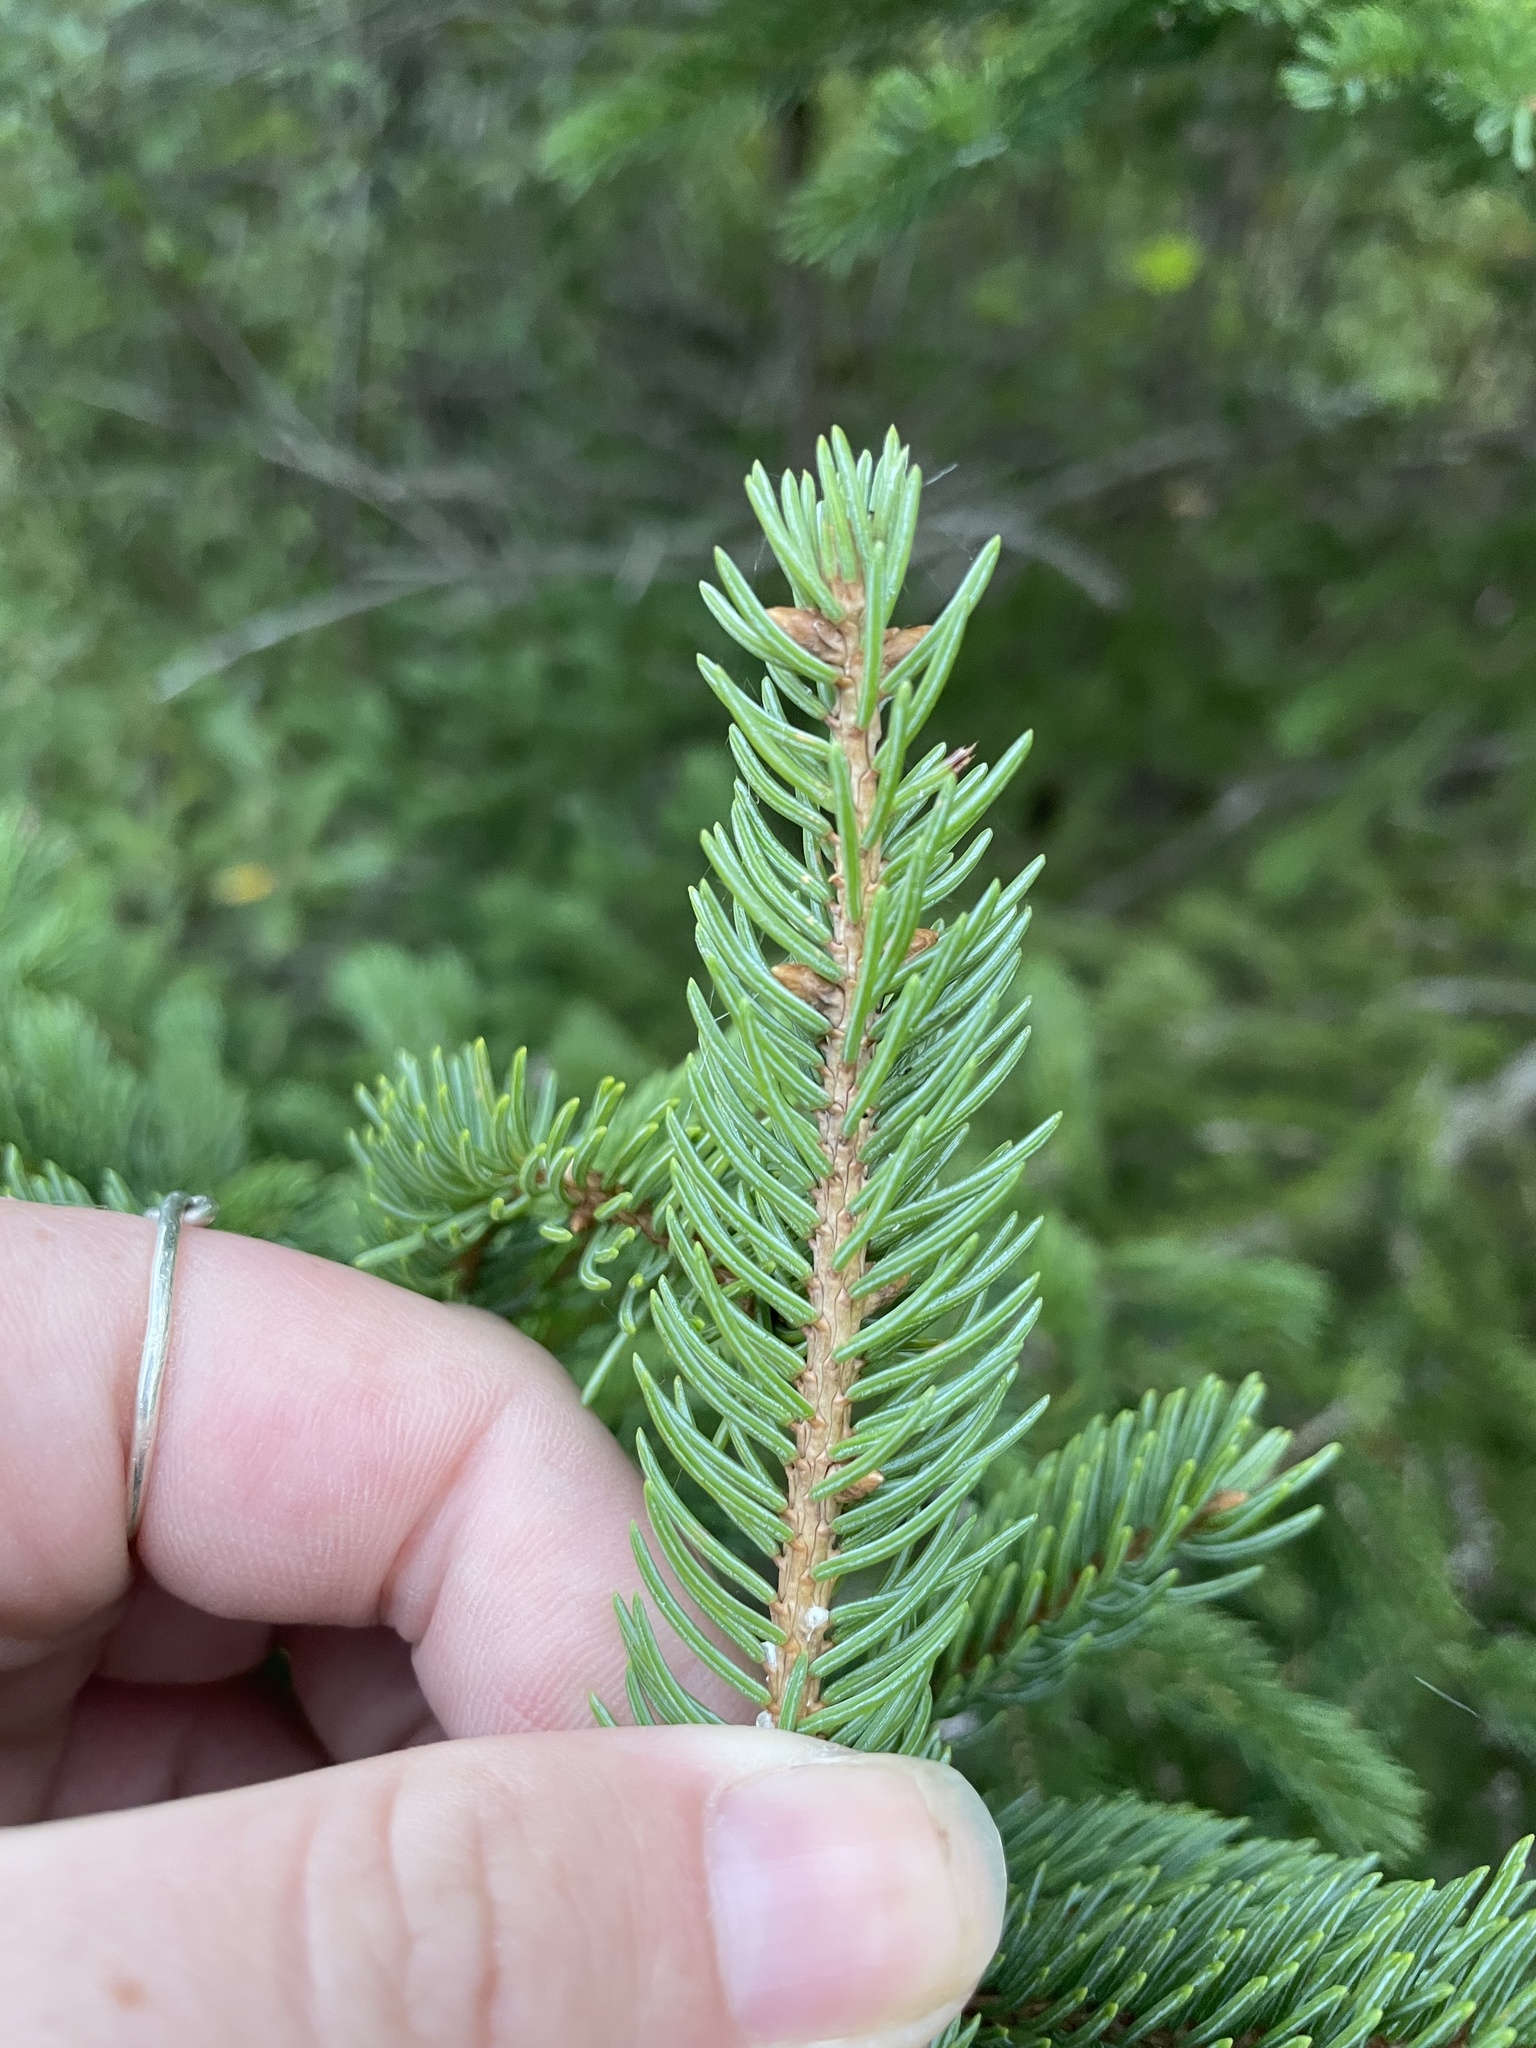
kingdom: Plantae
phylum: Tracheophyta
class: Pinopsida
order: Pinales
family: Pinaceae
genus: Picea
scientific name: Picea glauca
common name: White spruce
